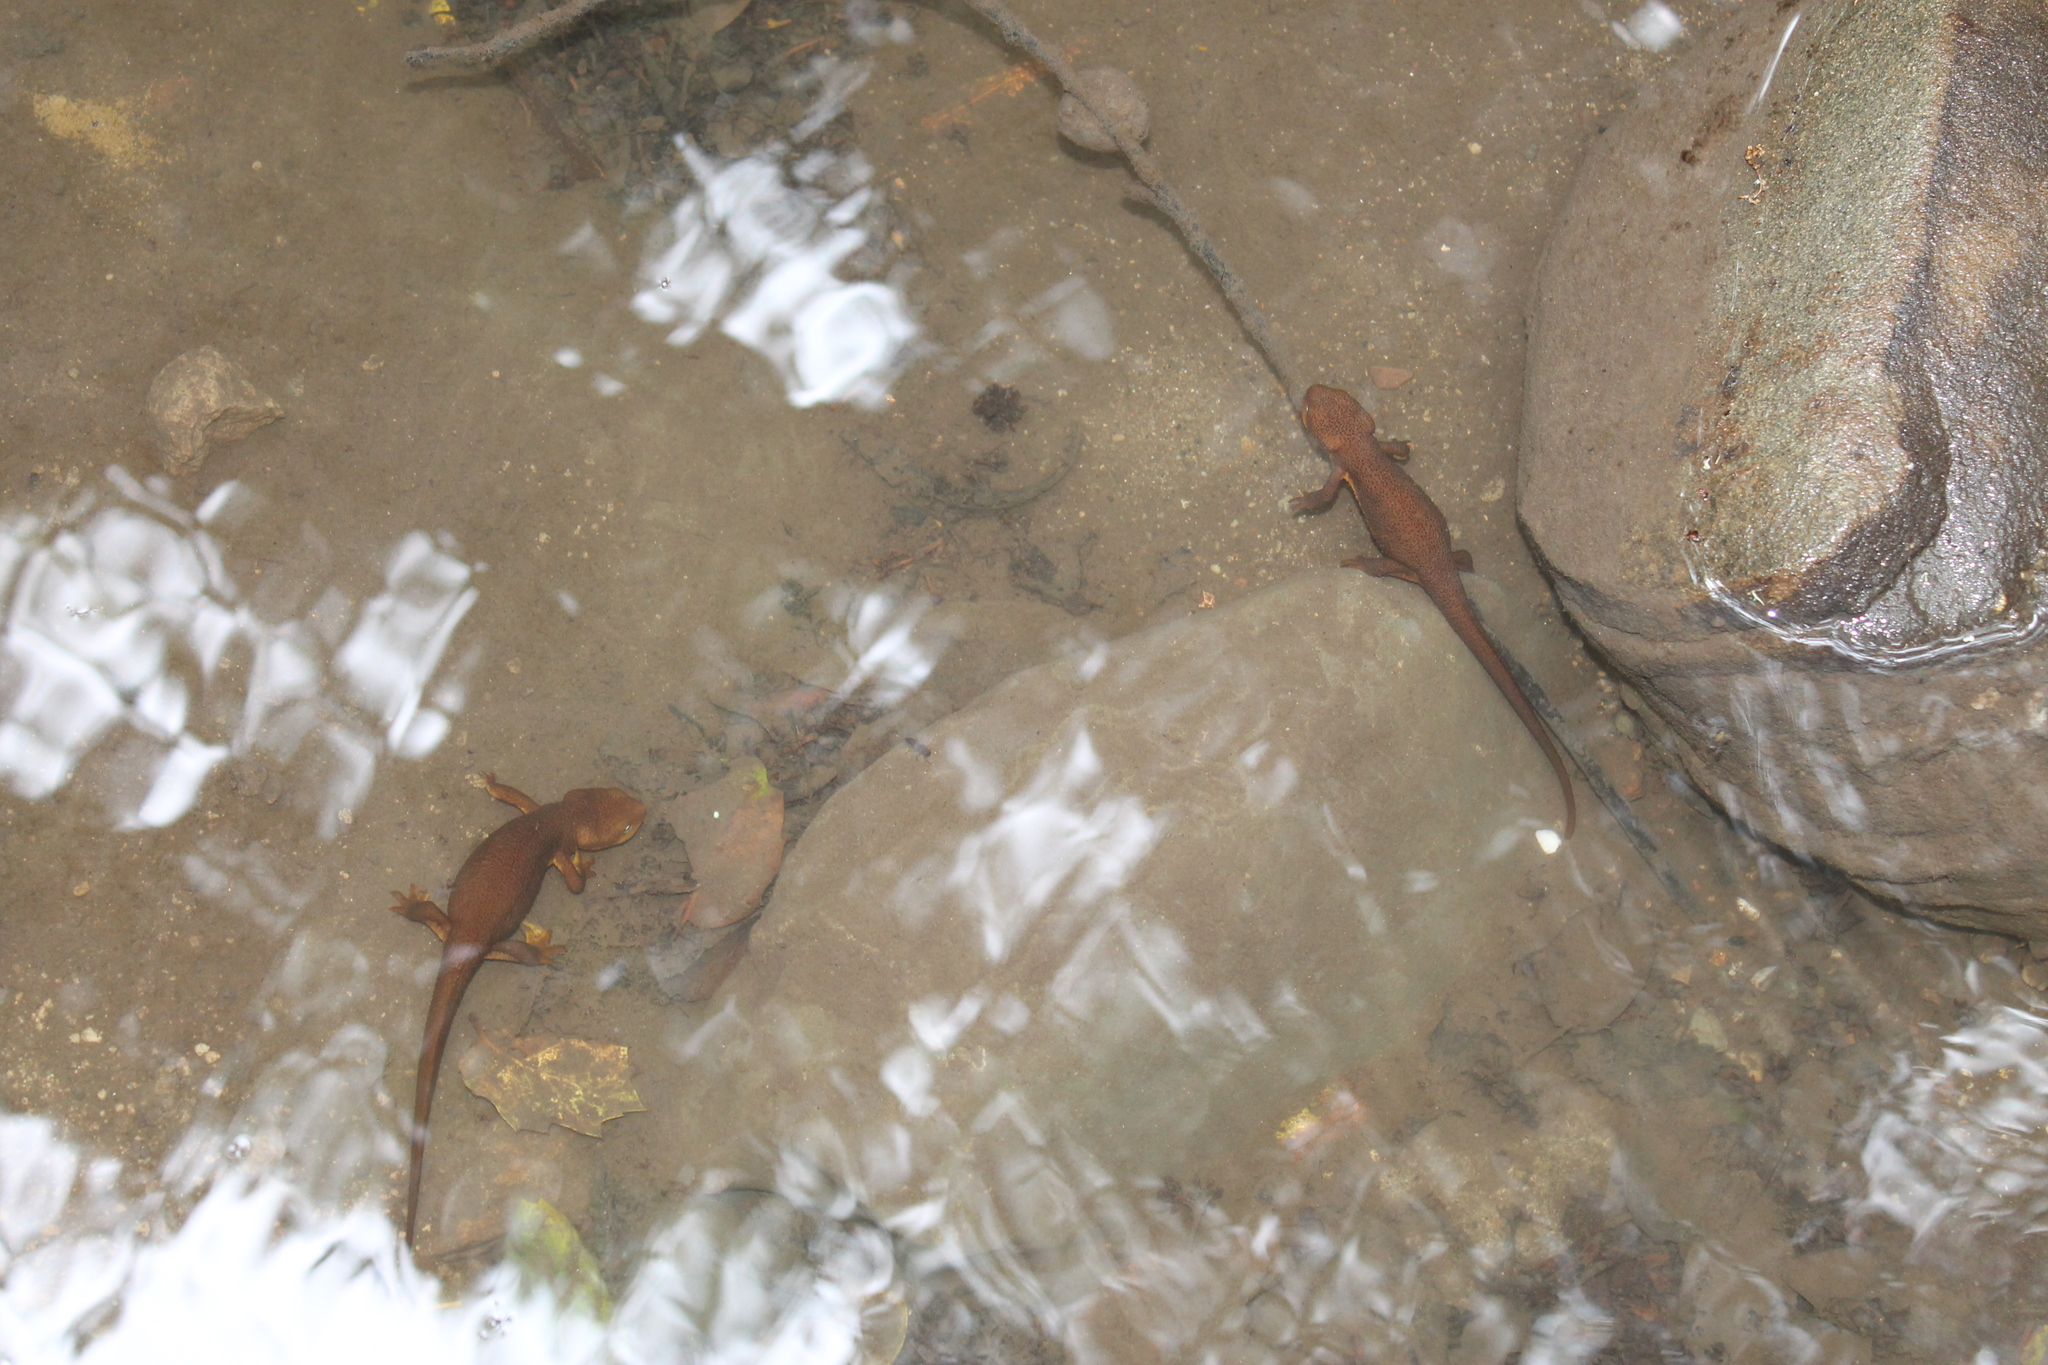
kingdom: Animalia
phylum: Chordata
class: Amphibia
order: Caudata
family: Salamandridae
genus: Taricha
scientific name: Taricha granulosa
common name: Roughskin newt
